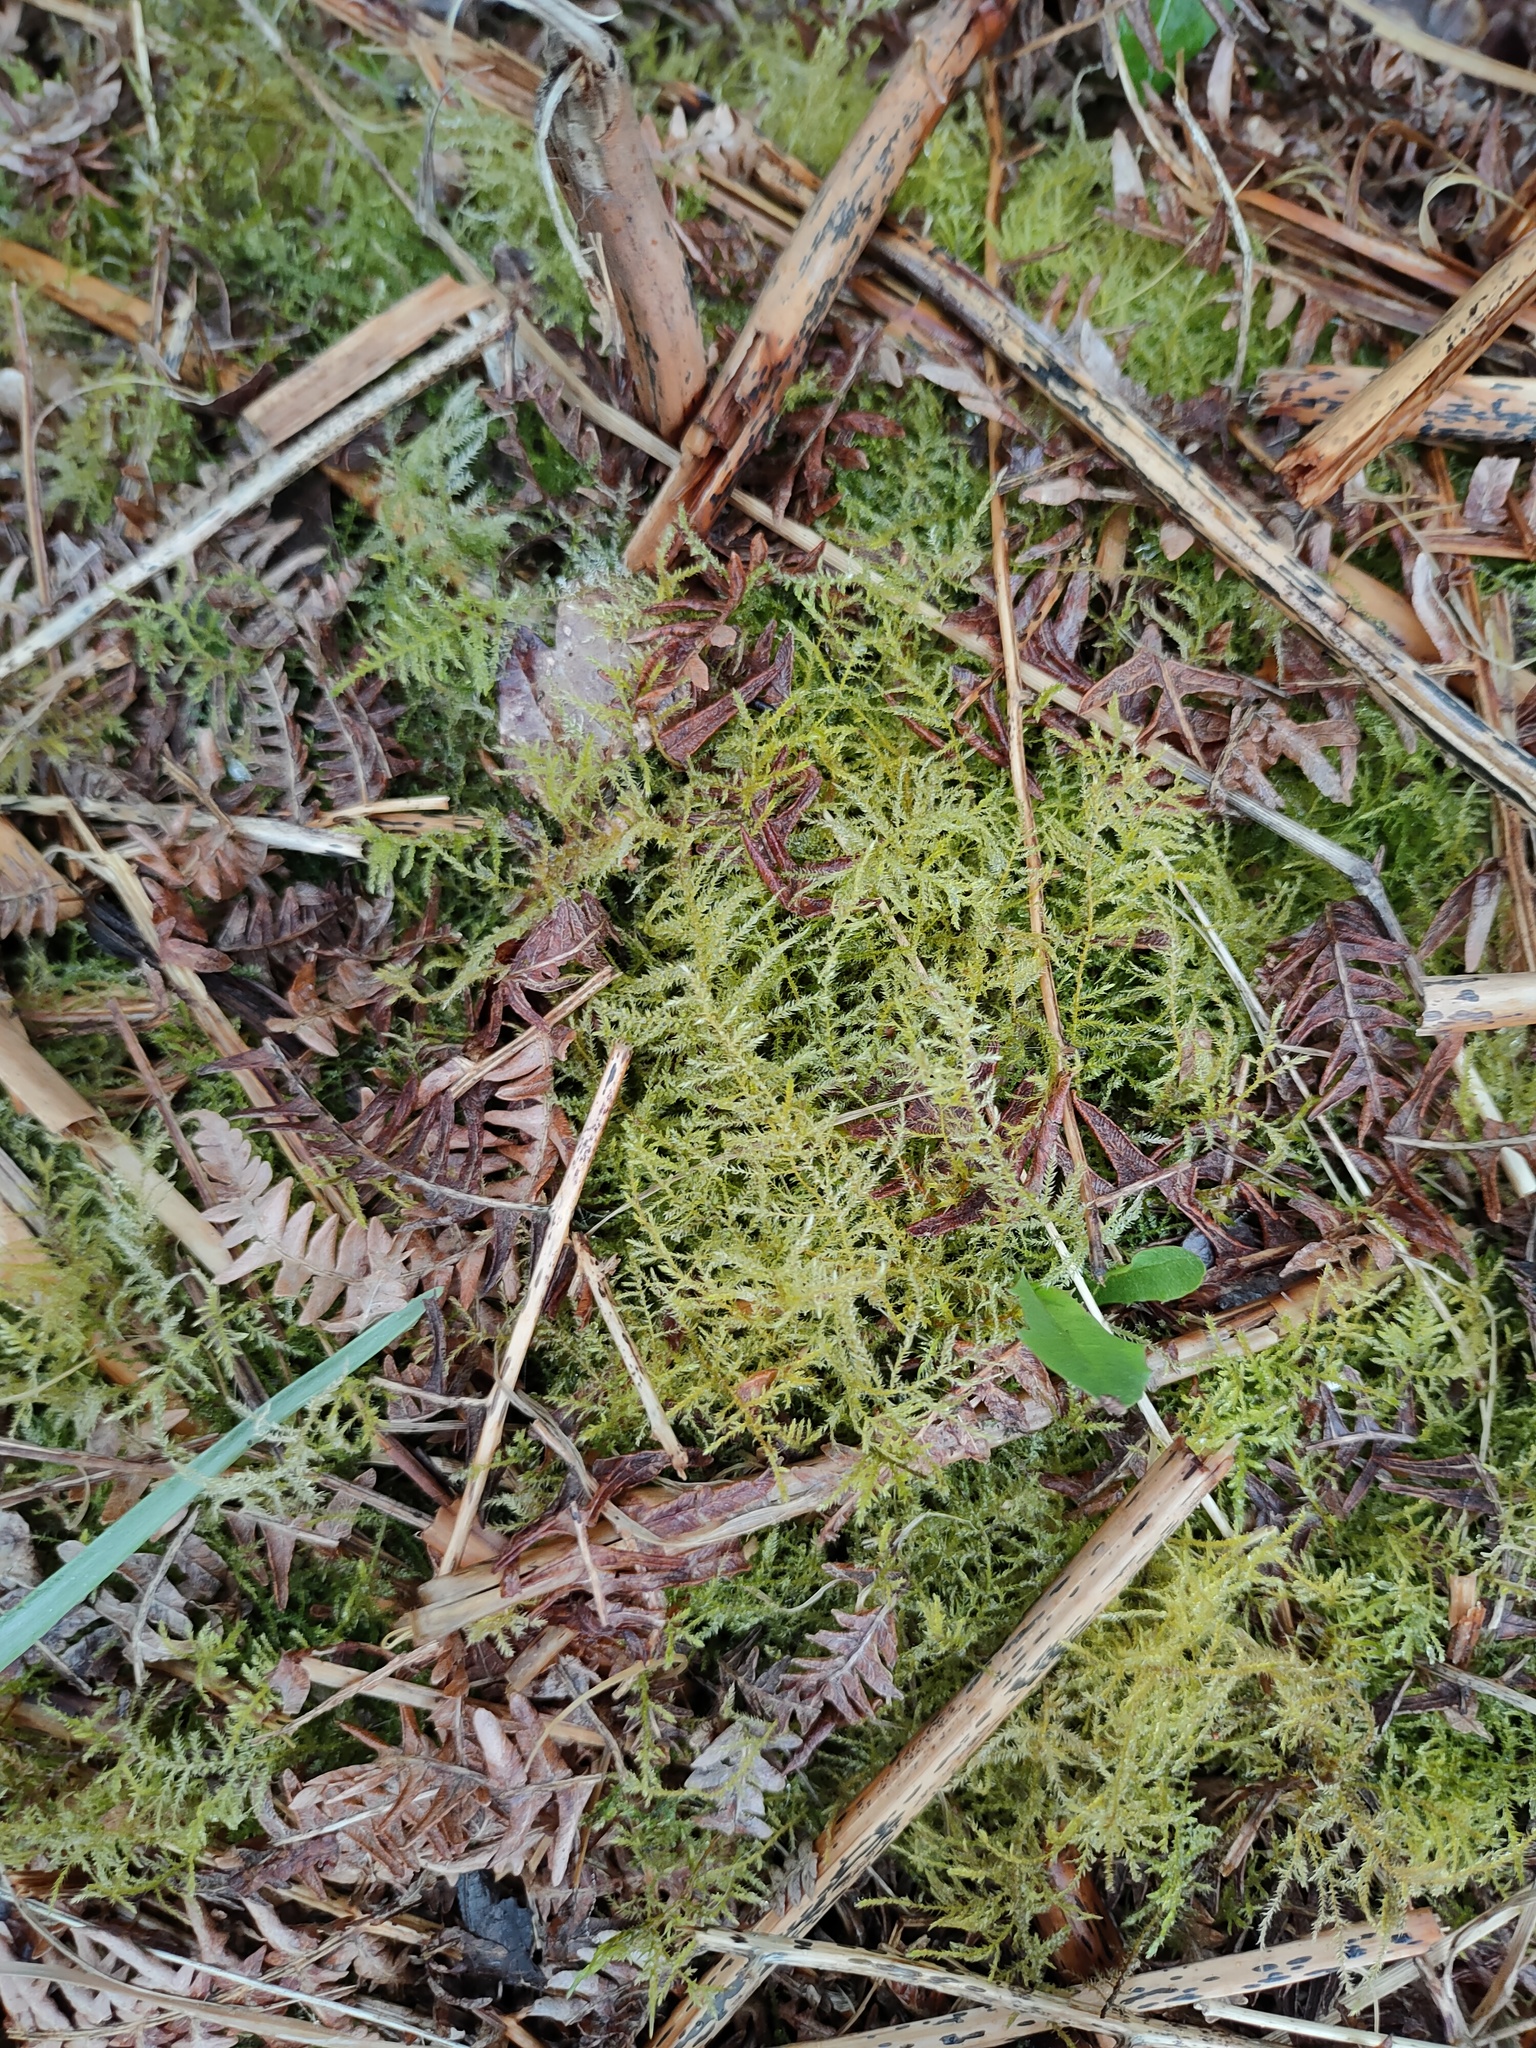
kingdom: Plantae
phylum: Bryophyta
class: Bryopsida
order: Hypnales
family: Brachytheciaceae
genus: Kindbergia
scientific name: Kindbergia praelonga
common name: Slender beaked moss
